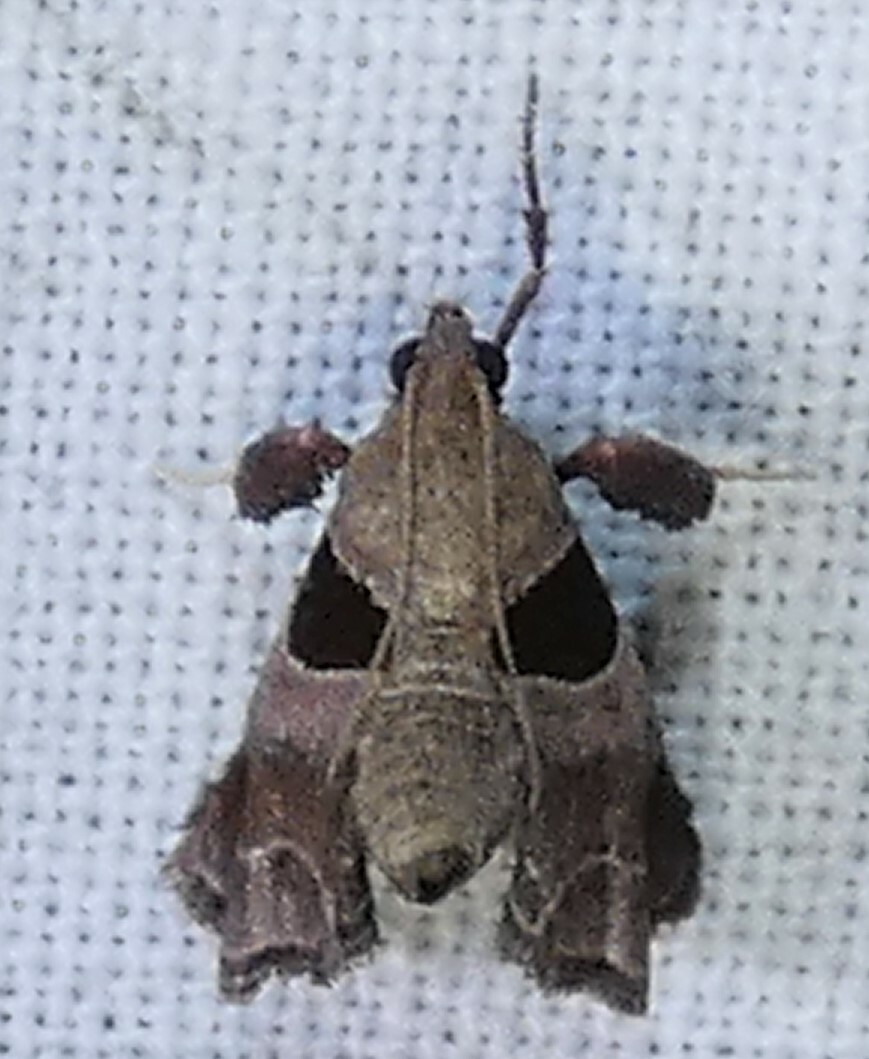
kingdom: Animalia
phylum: Arthropoda
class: Insecta
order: Lepidoptera
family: Pyralidae
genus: Tosale
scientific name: Tosale oviplagalis
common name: Dimorphic tosale moth
